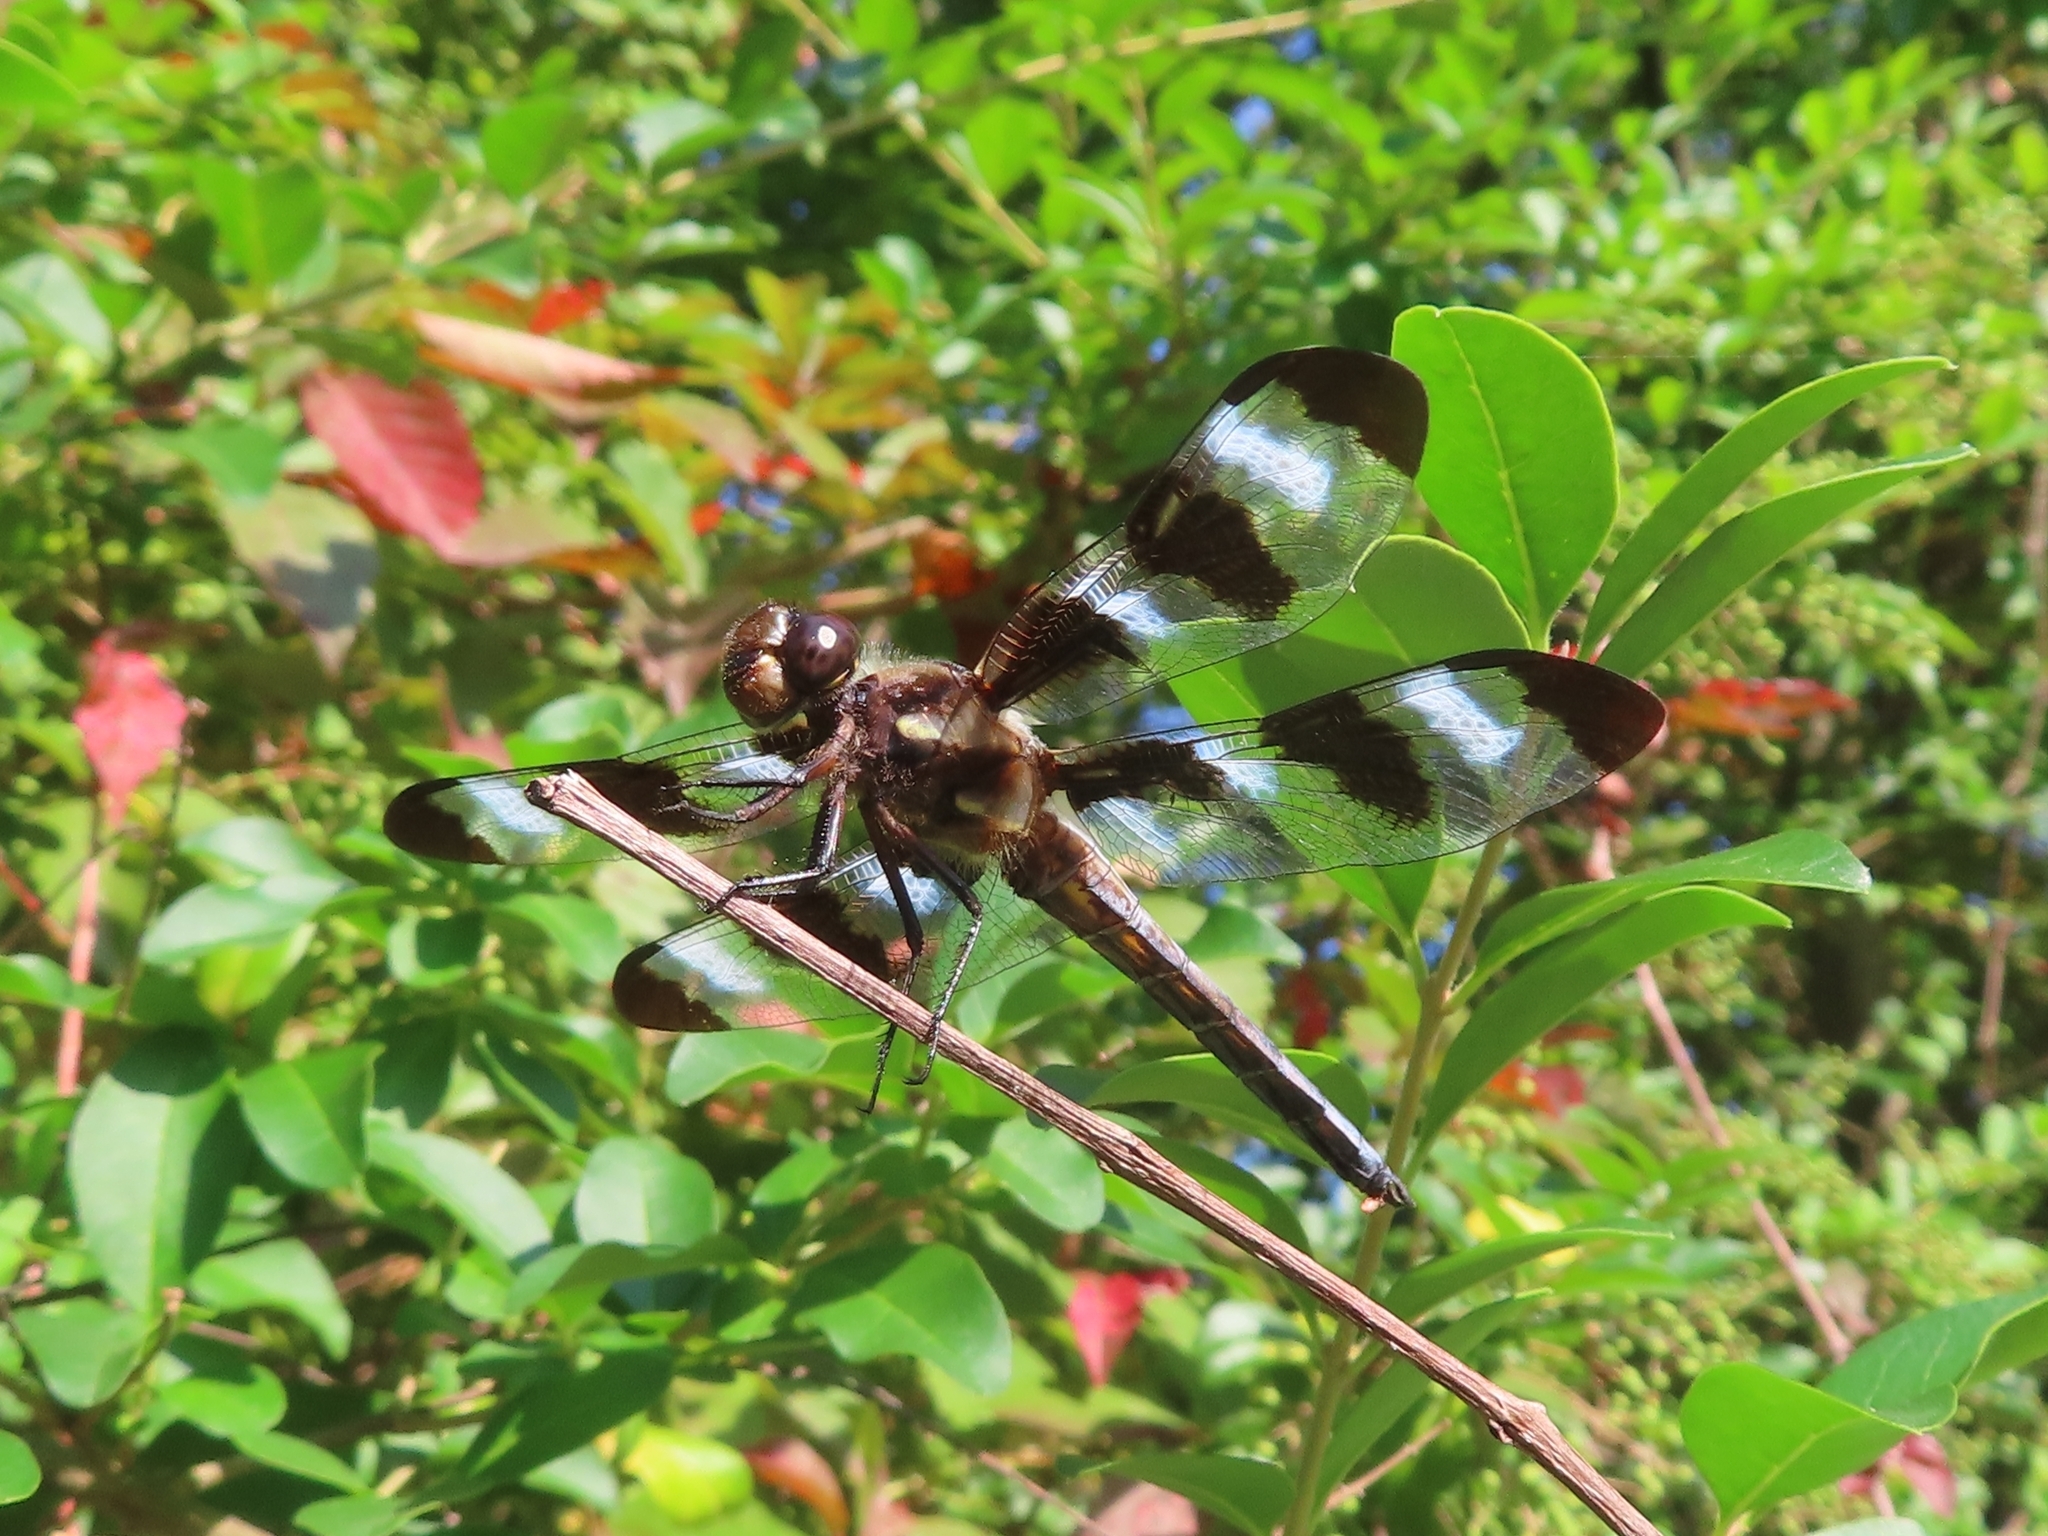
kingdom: Animalia
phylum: Arthropoda
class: Insecta
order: Odonata
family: Libellulidae
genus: Libellula
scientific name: Libellula pulchella
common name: Twelve-spotted skimmer
